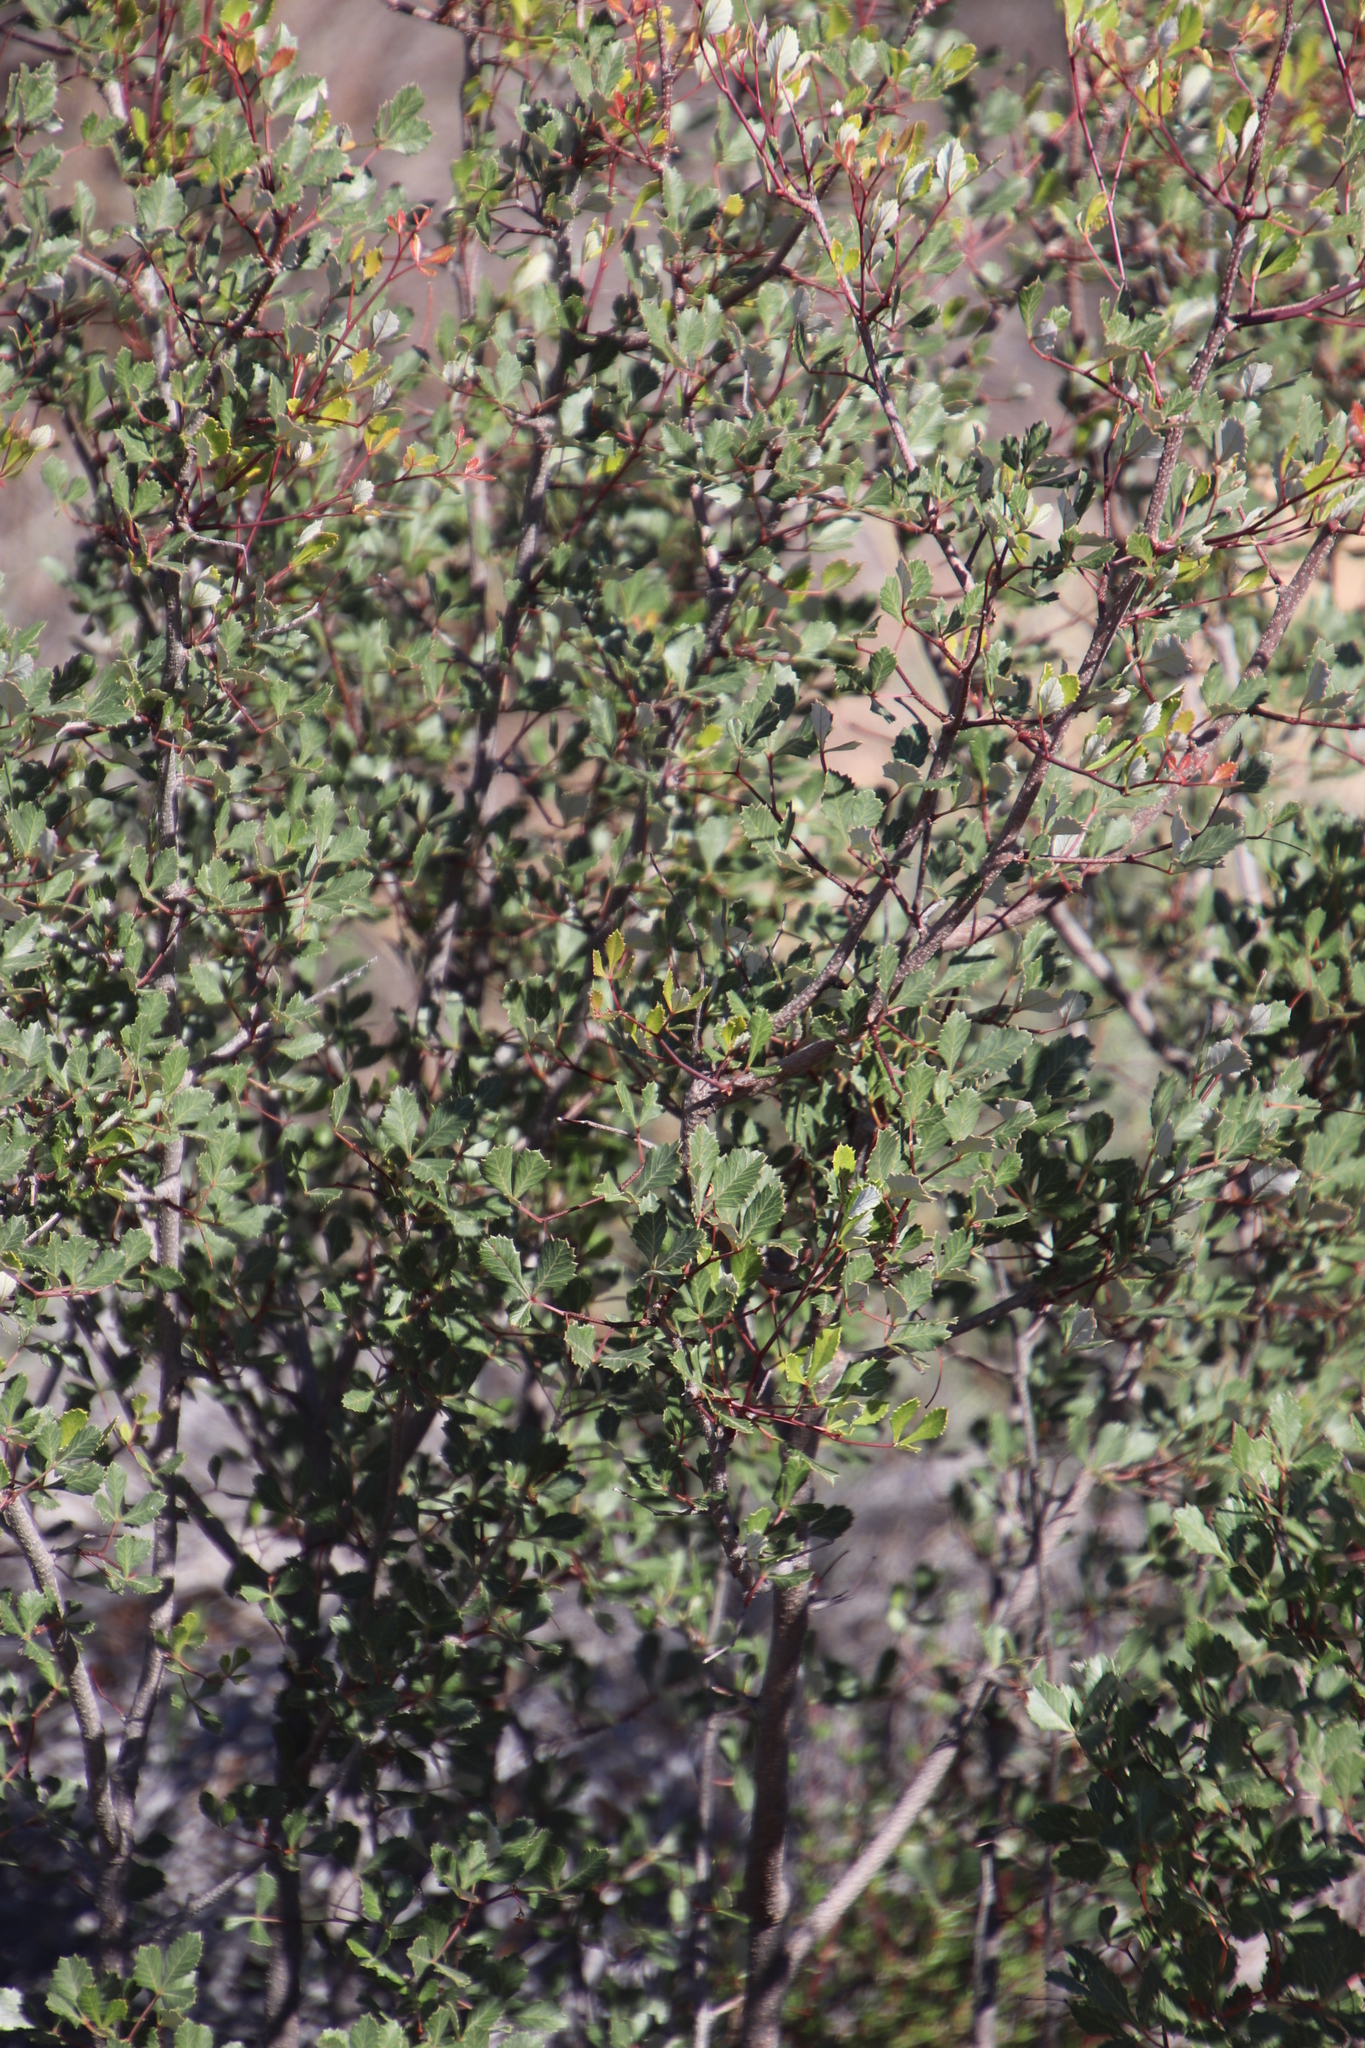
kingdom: Plantae
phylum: Tracheophyta
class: Magnoliopsida
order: Sapindales
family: Anacardiaceae
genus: Searsia
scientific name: Searsia dissecta
